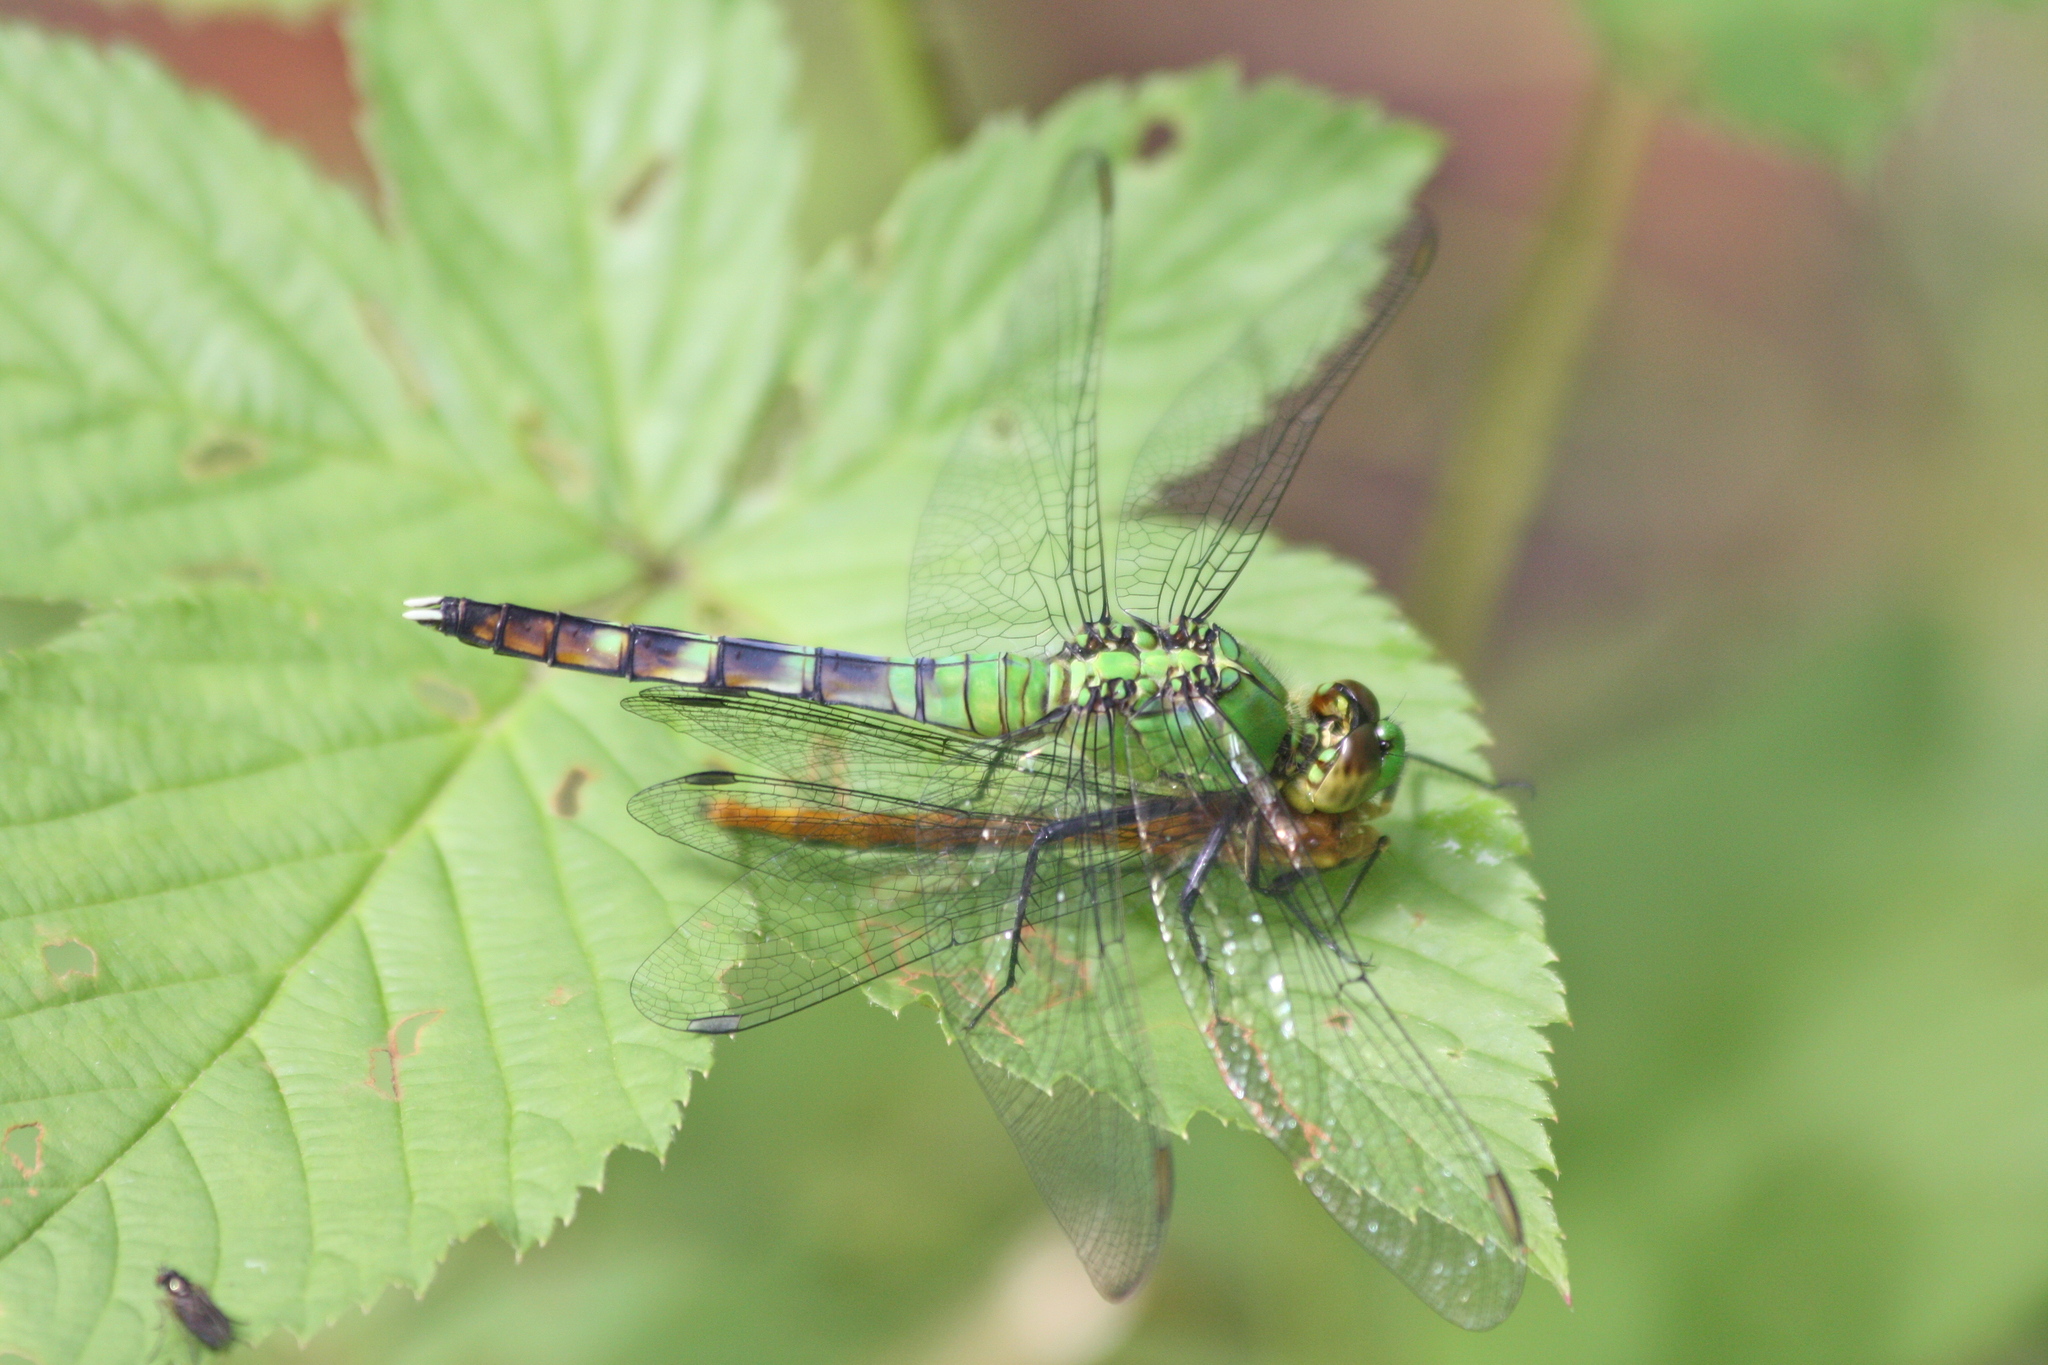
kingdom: Animalia
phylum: Arthropoda
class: Insecta
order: Odonata
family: Libellulidae
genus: Erythemis
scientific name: Erythemis simplicicollis
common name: Eastern pondhawk
